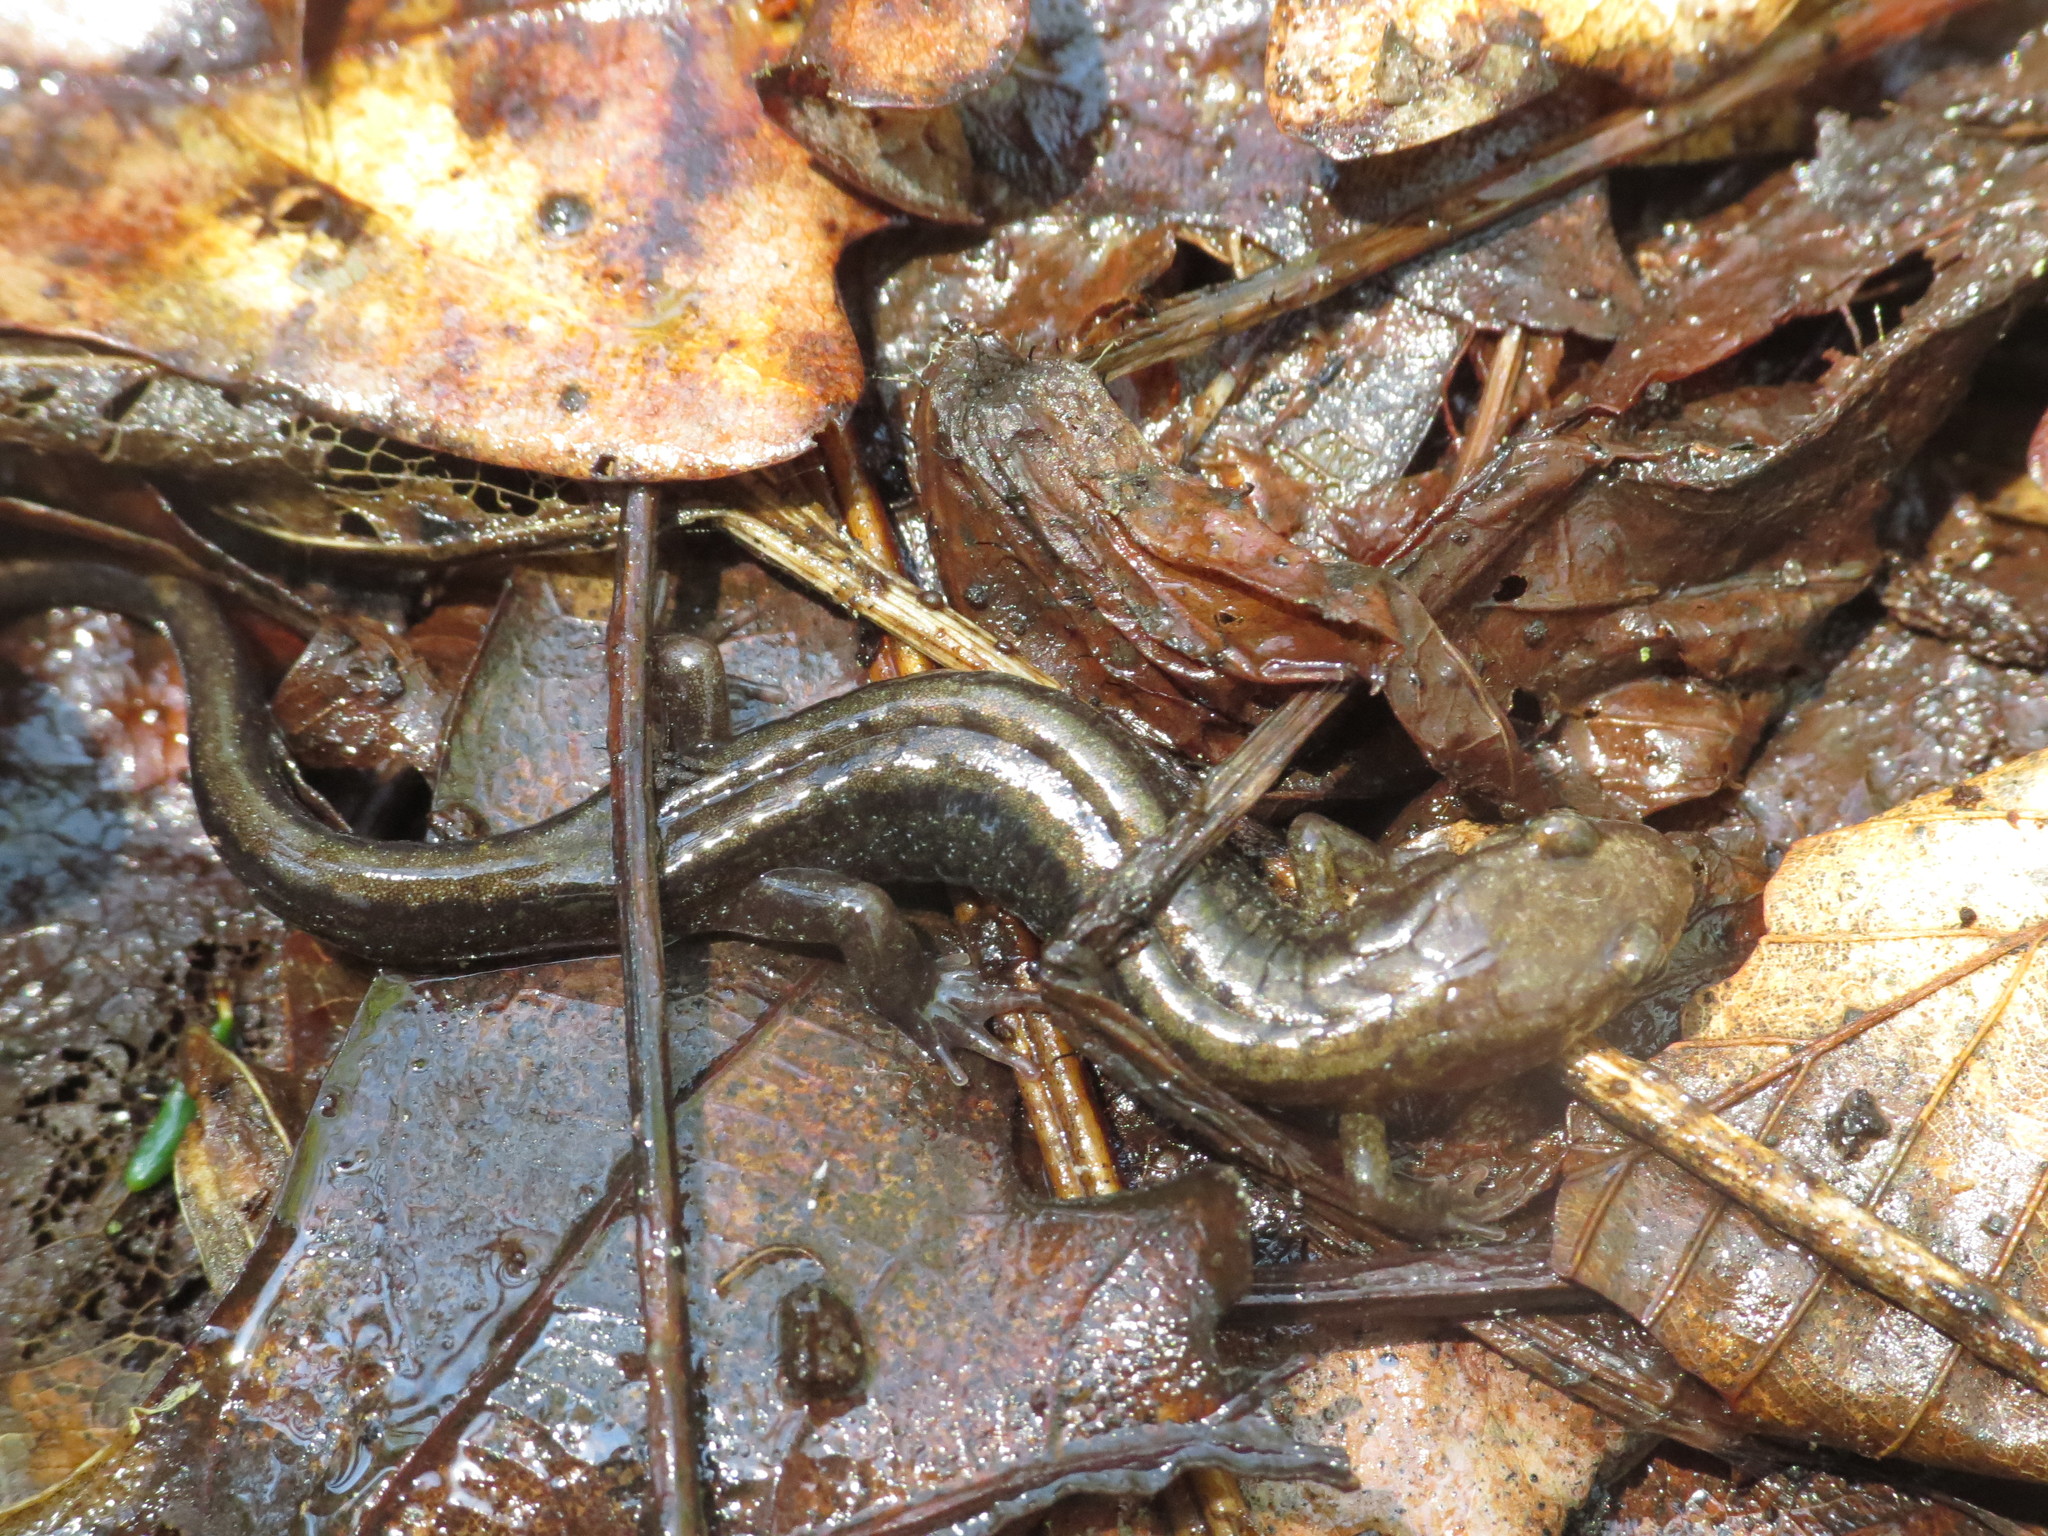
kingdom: Animalia
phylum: Chordata
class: Amphibia
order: Caudata
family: Plethodontidae
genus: Desmognathus
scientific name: Desmognathus ochrophaeus
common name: Allegheny mountain dusky salamander
